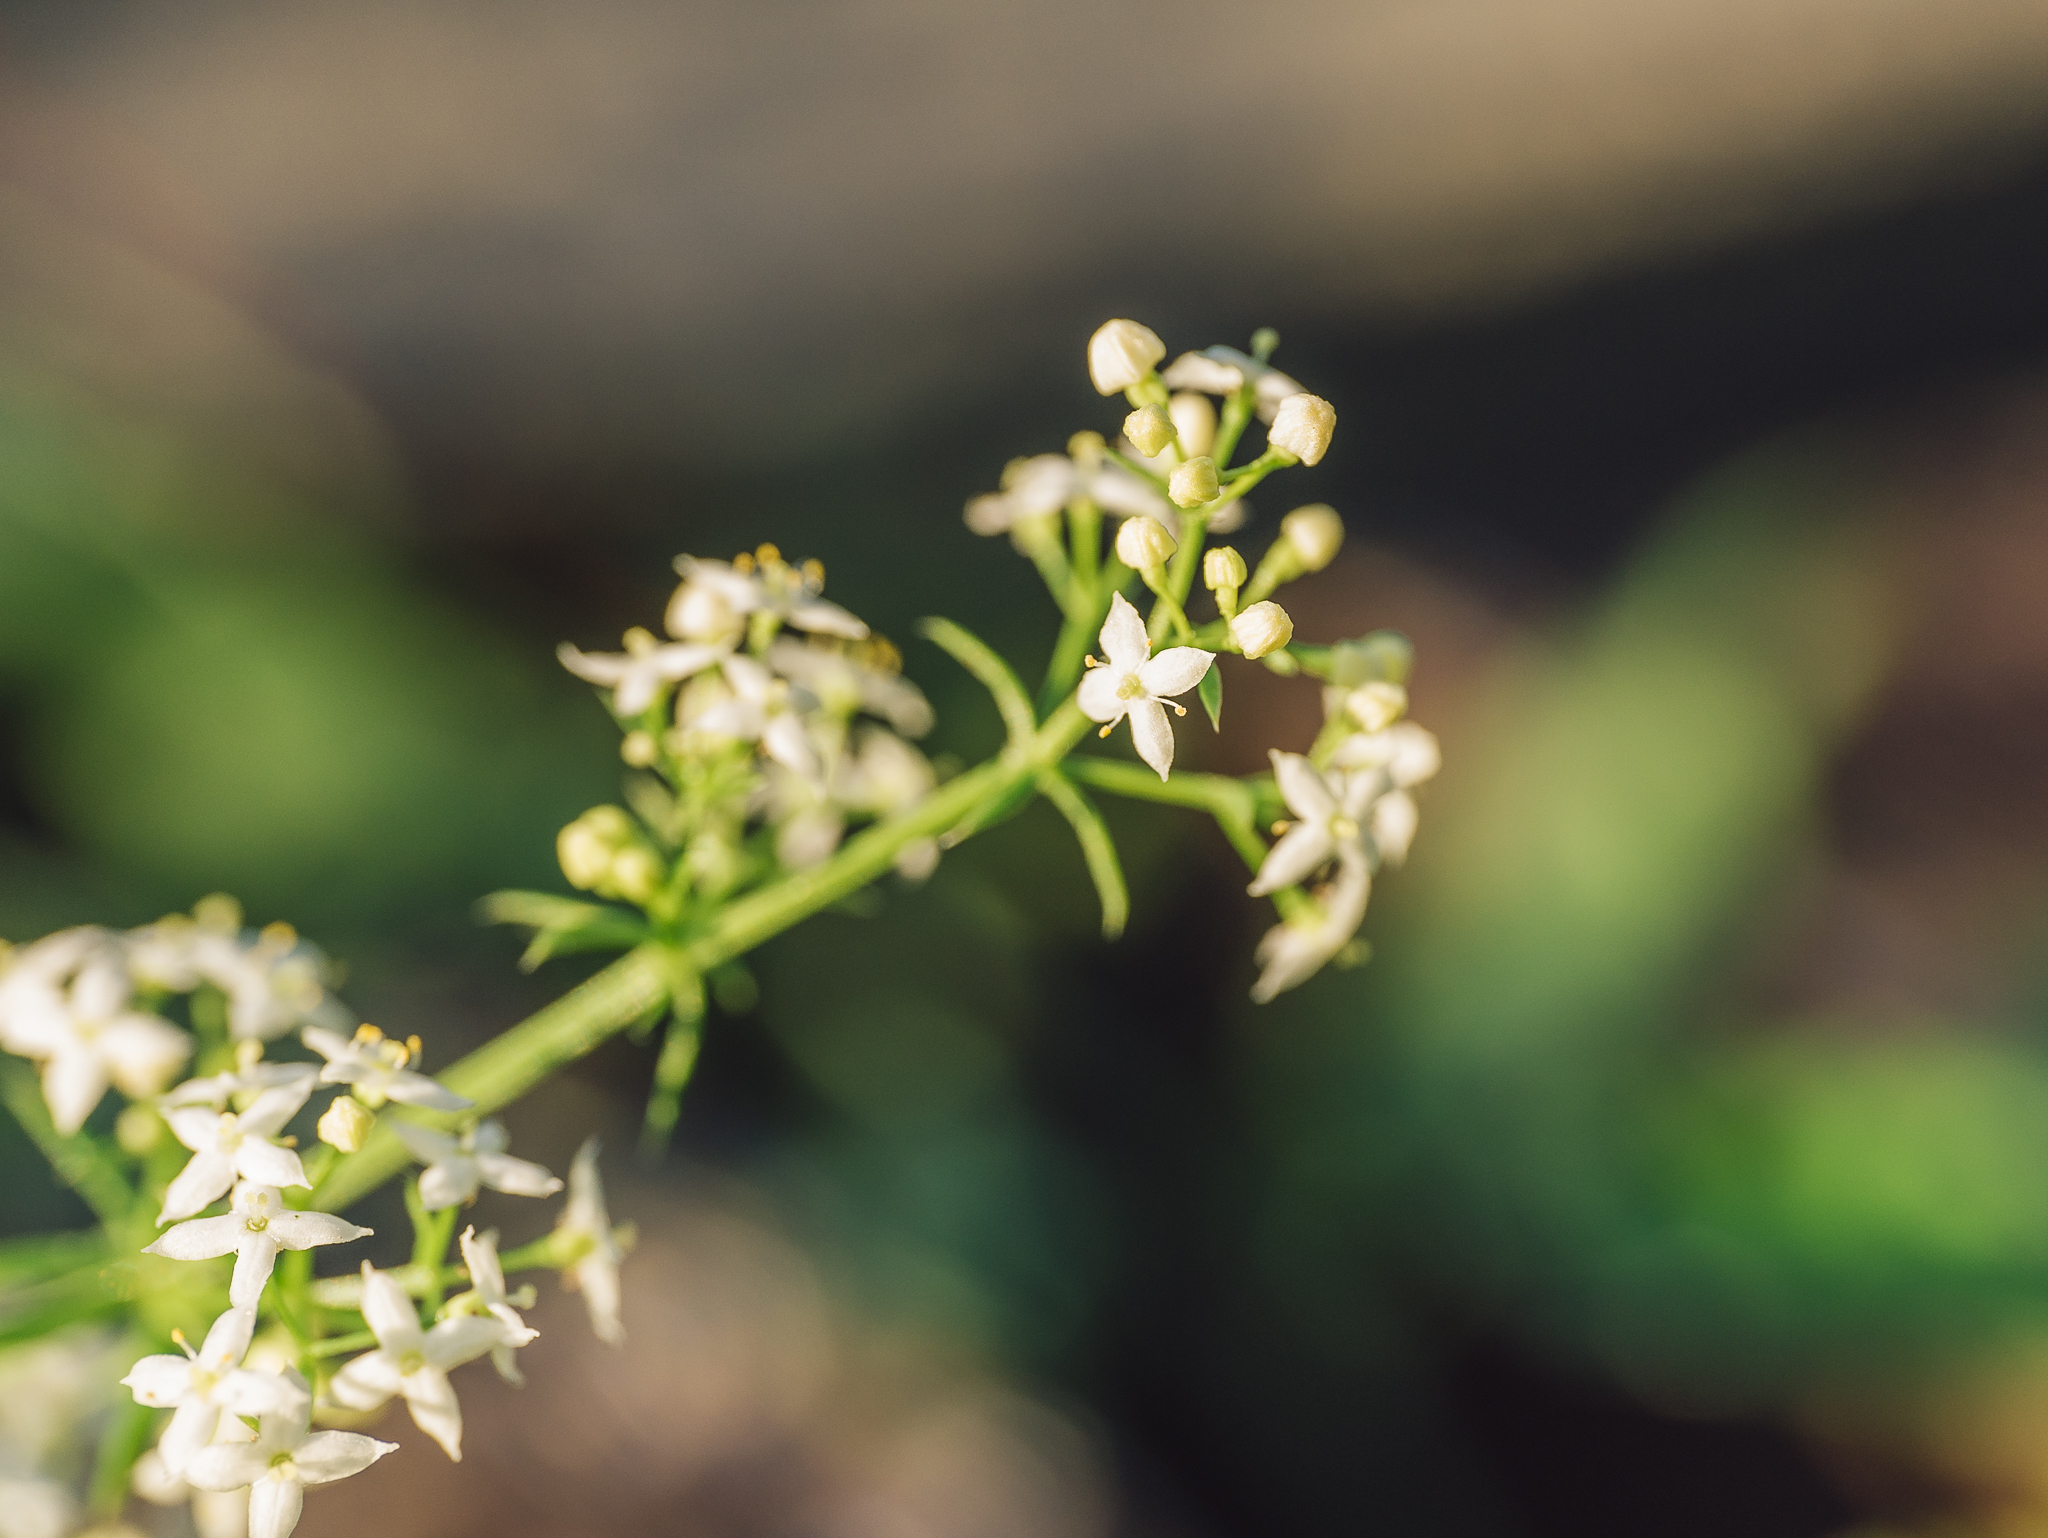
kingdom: Plantae
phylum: Tracheophyta
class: Magnoliopsida
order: Gentianales
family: Rubiaceae
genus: Galium
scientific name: Galium mollugo
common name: Hedge bedstraw
